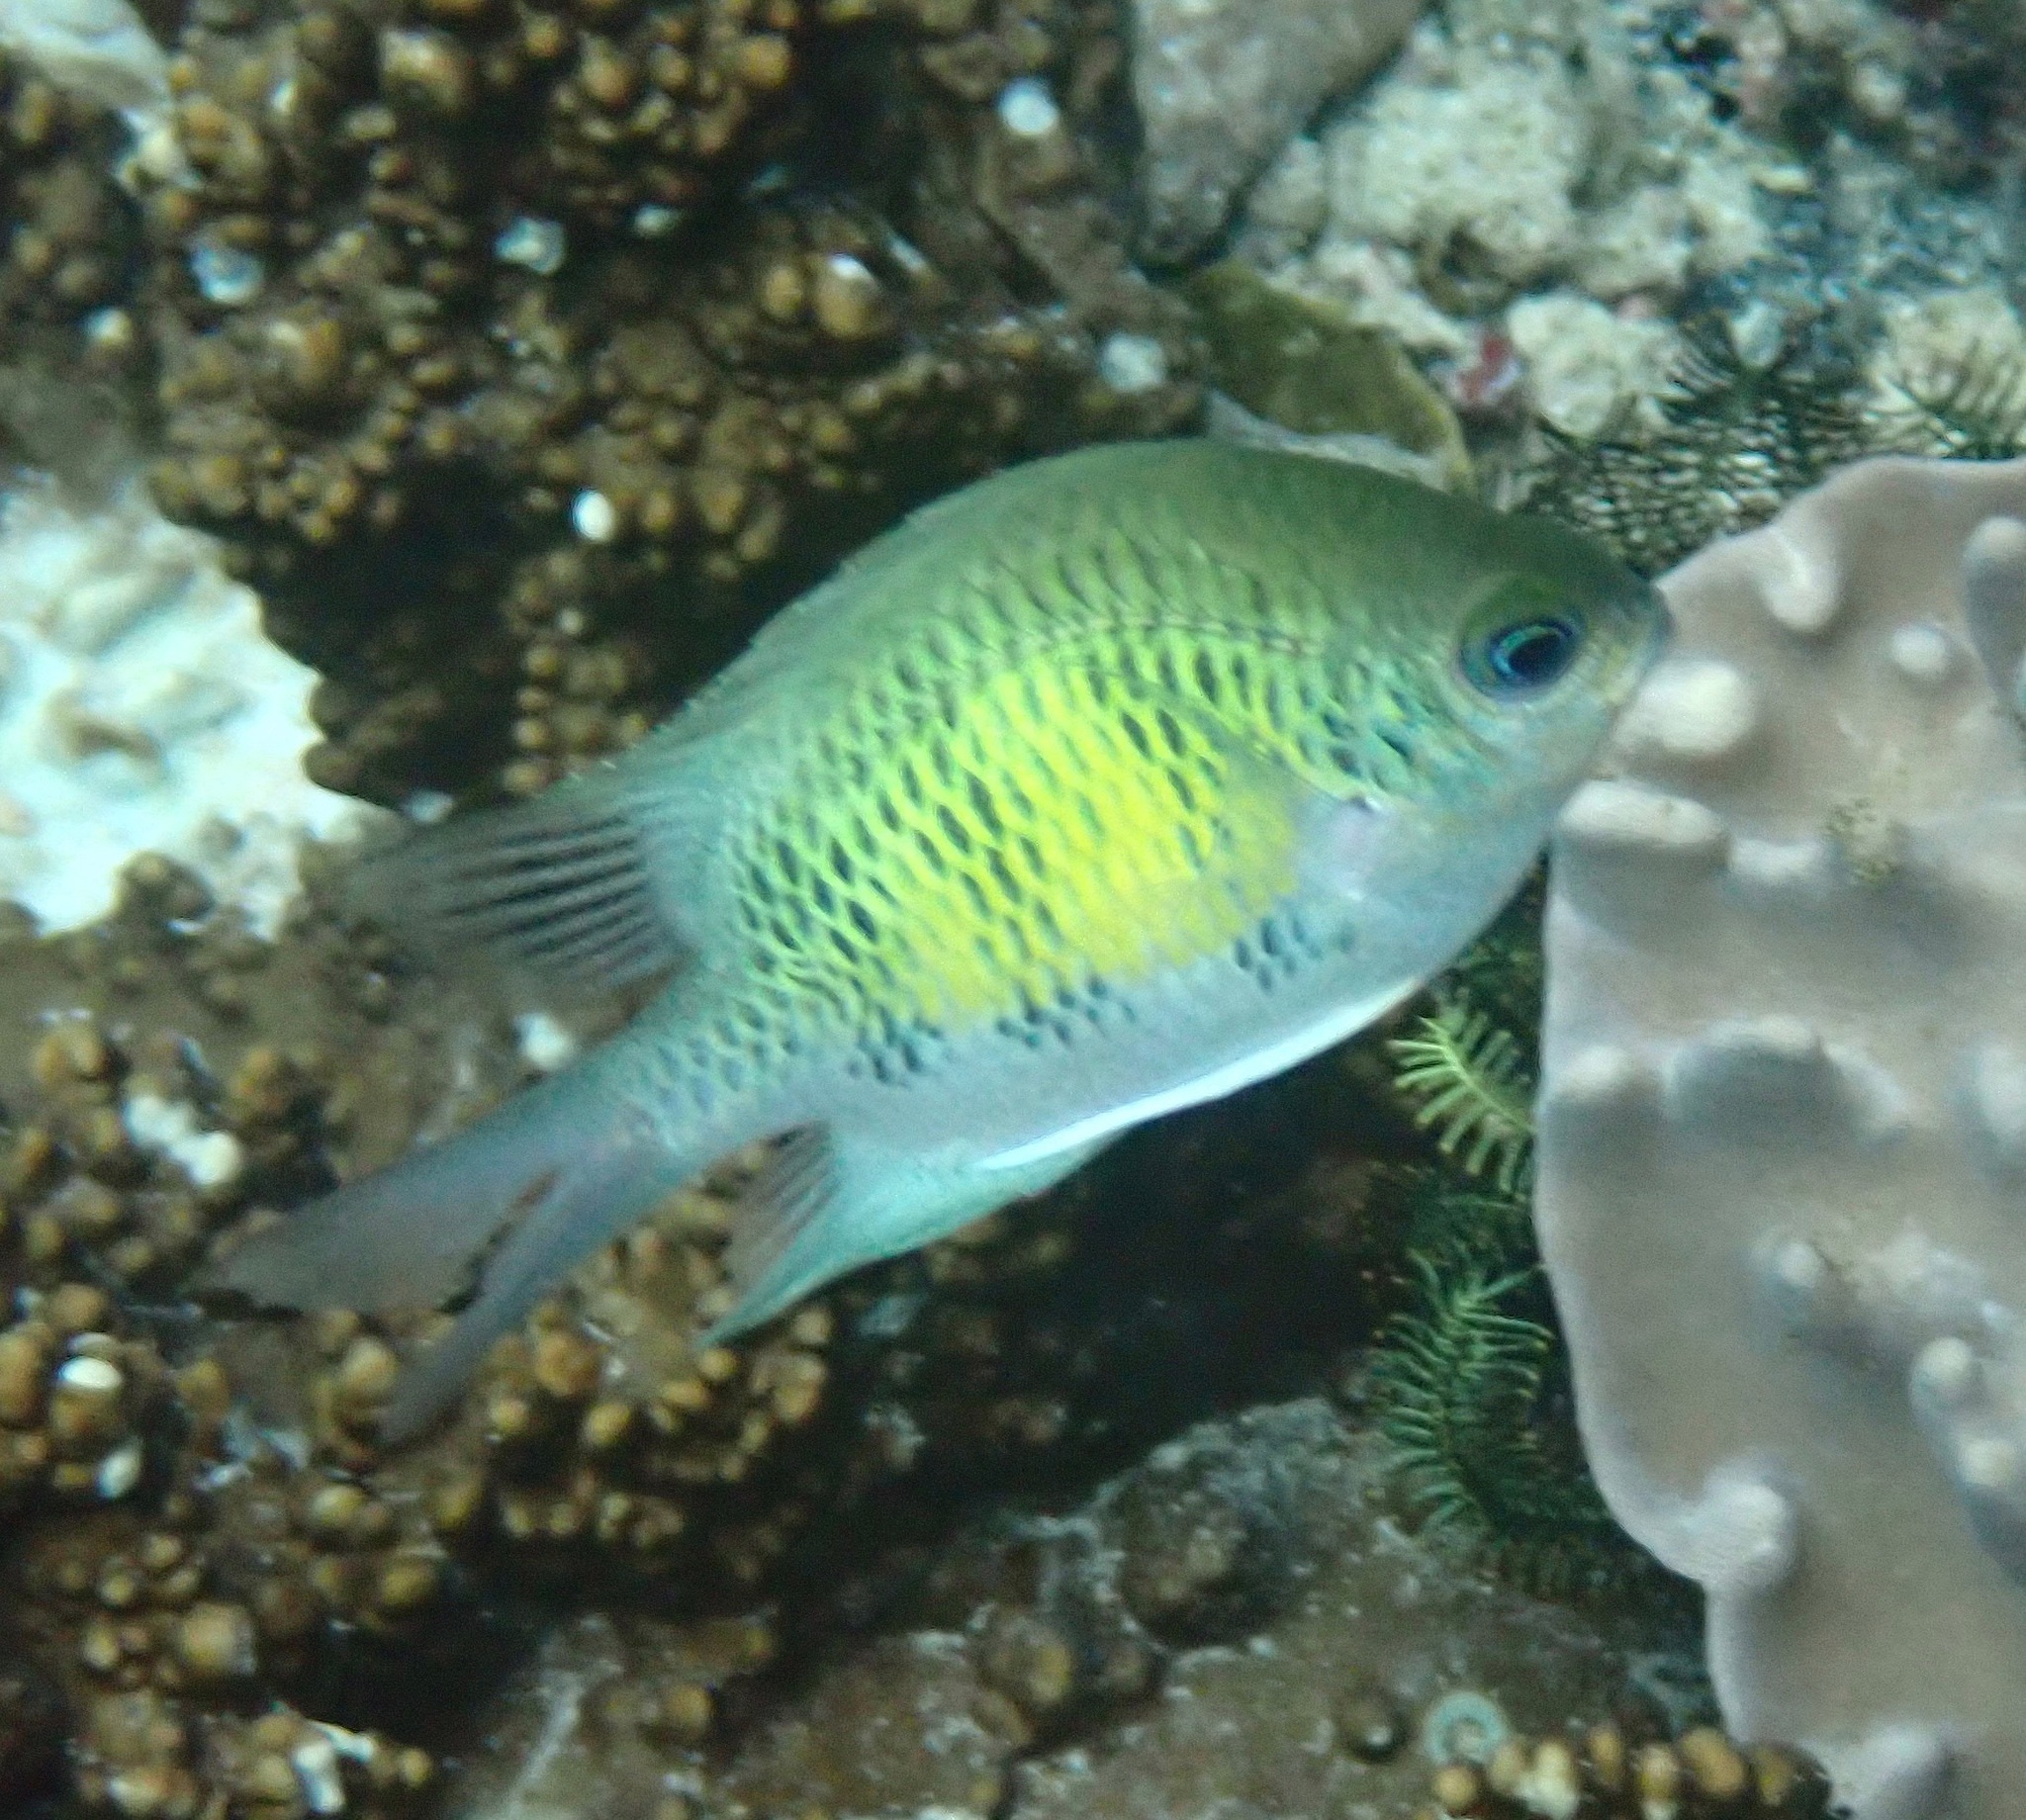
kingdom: Animalia
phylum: Chordata
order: Perciformes
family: Pomacentridae
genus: Amblyglyphidodon
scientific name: Amblyglyphidodon curacao
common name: Staghorn damsel
